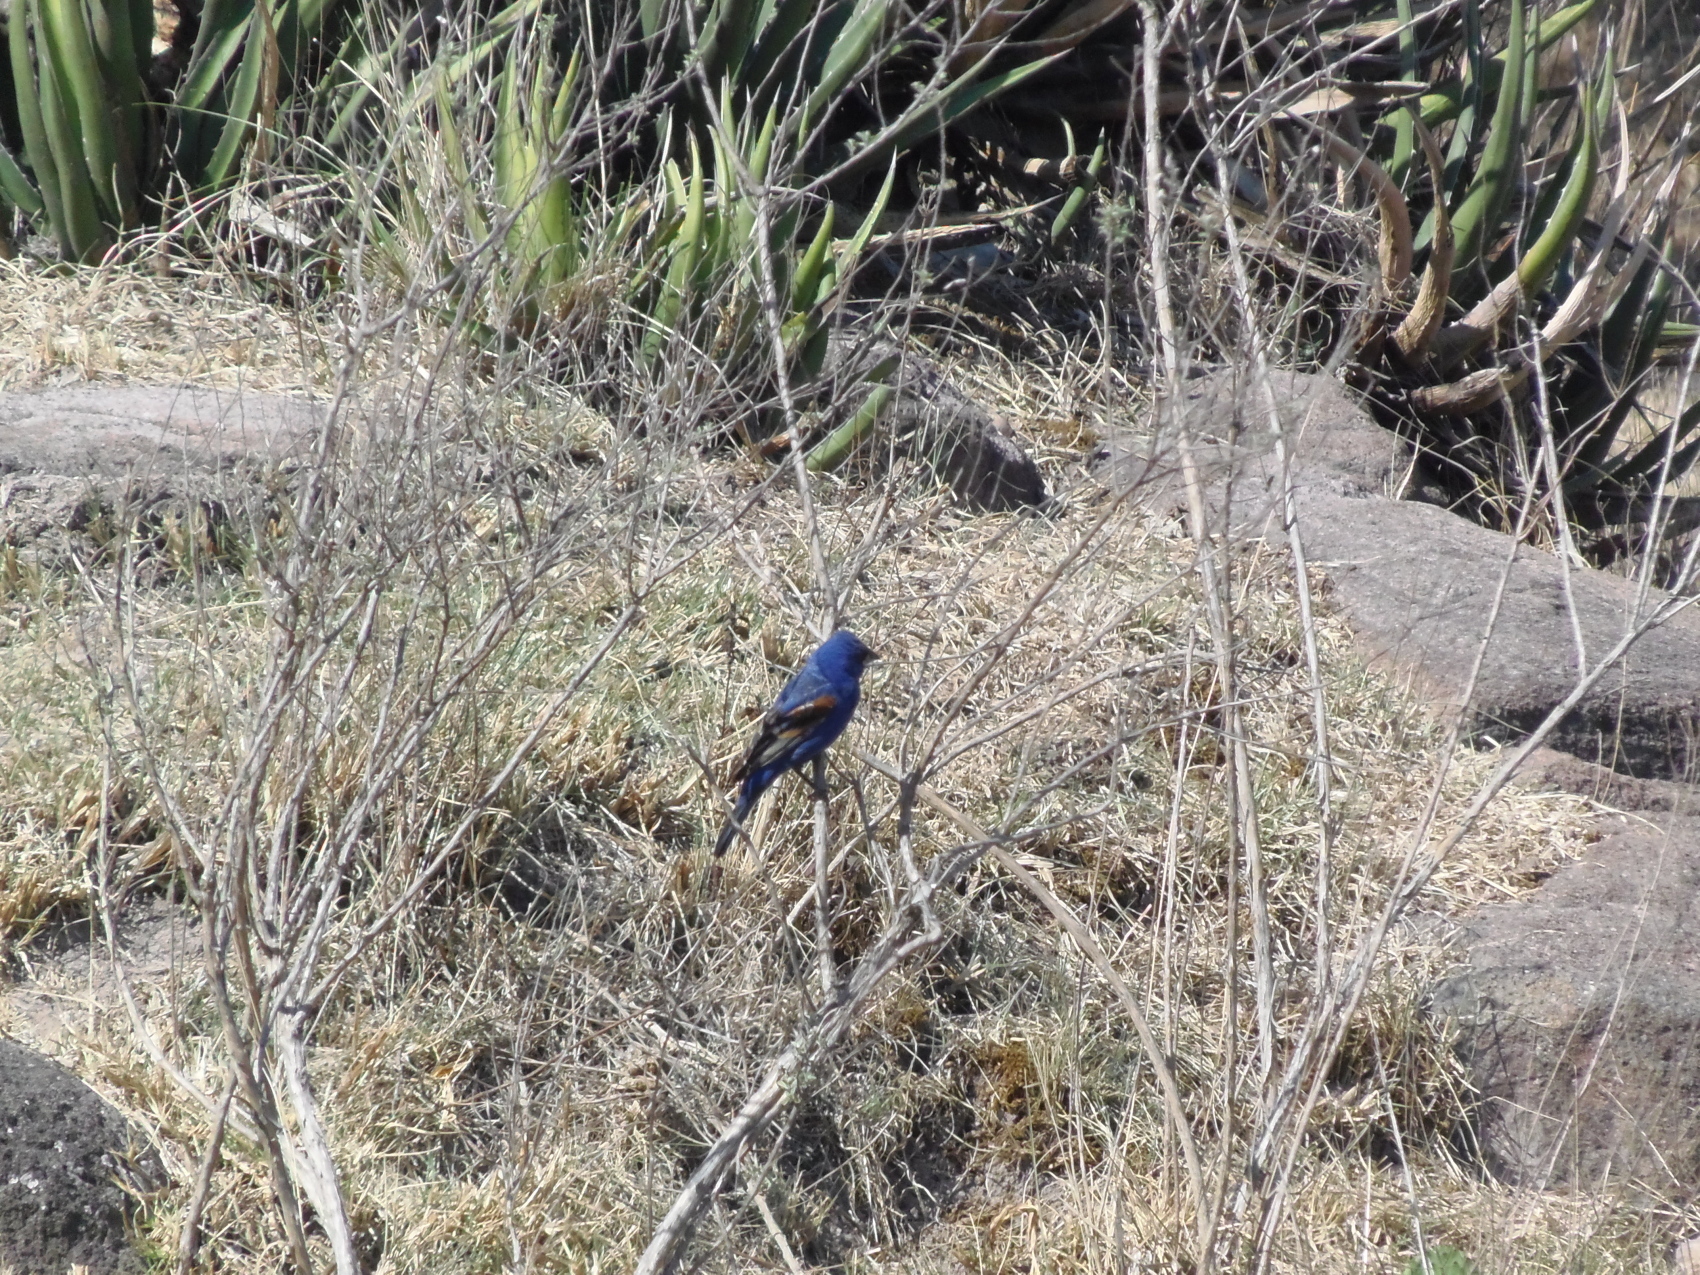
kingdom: Animalia
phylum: Chordata
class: Aves
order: Passeriformes
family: Cardinalidae
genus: Passerina
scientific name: Passerina caerulea
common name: Blue grosbeak
